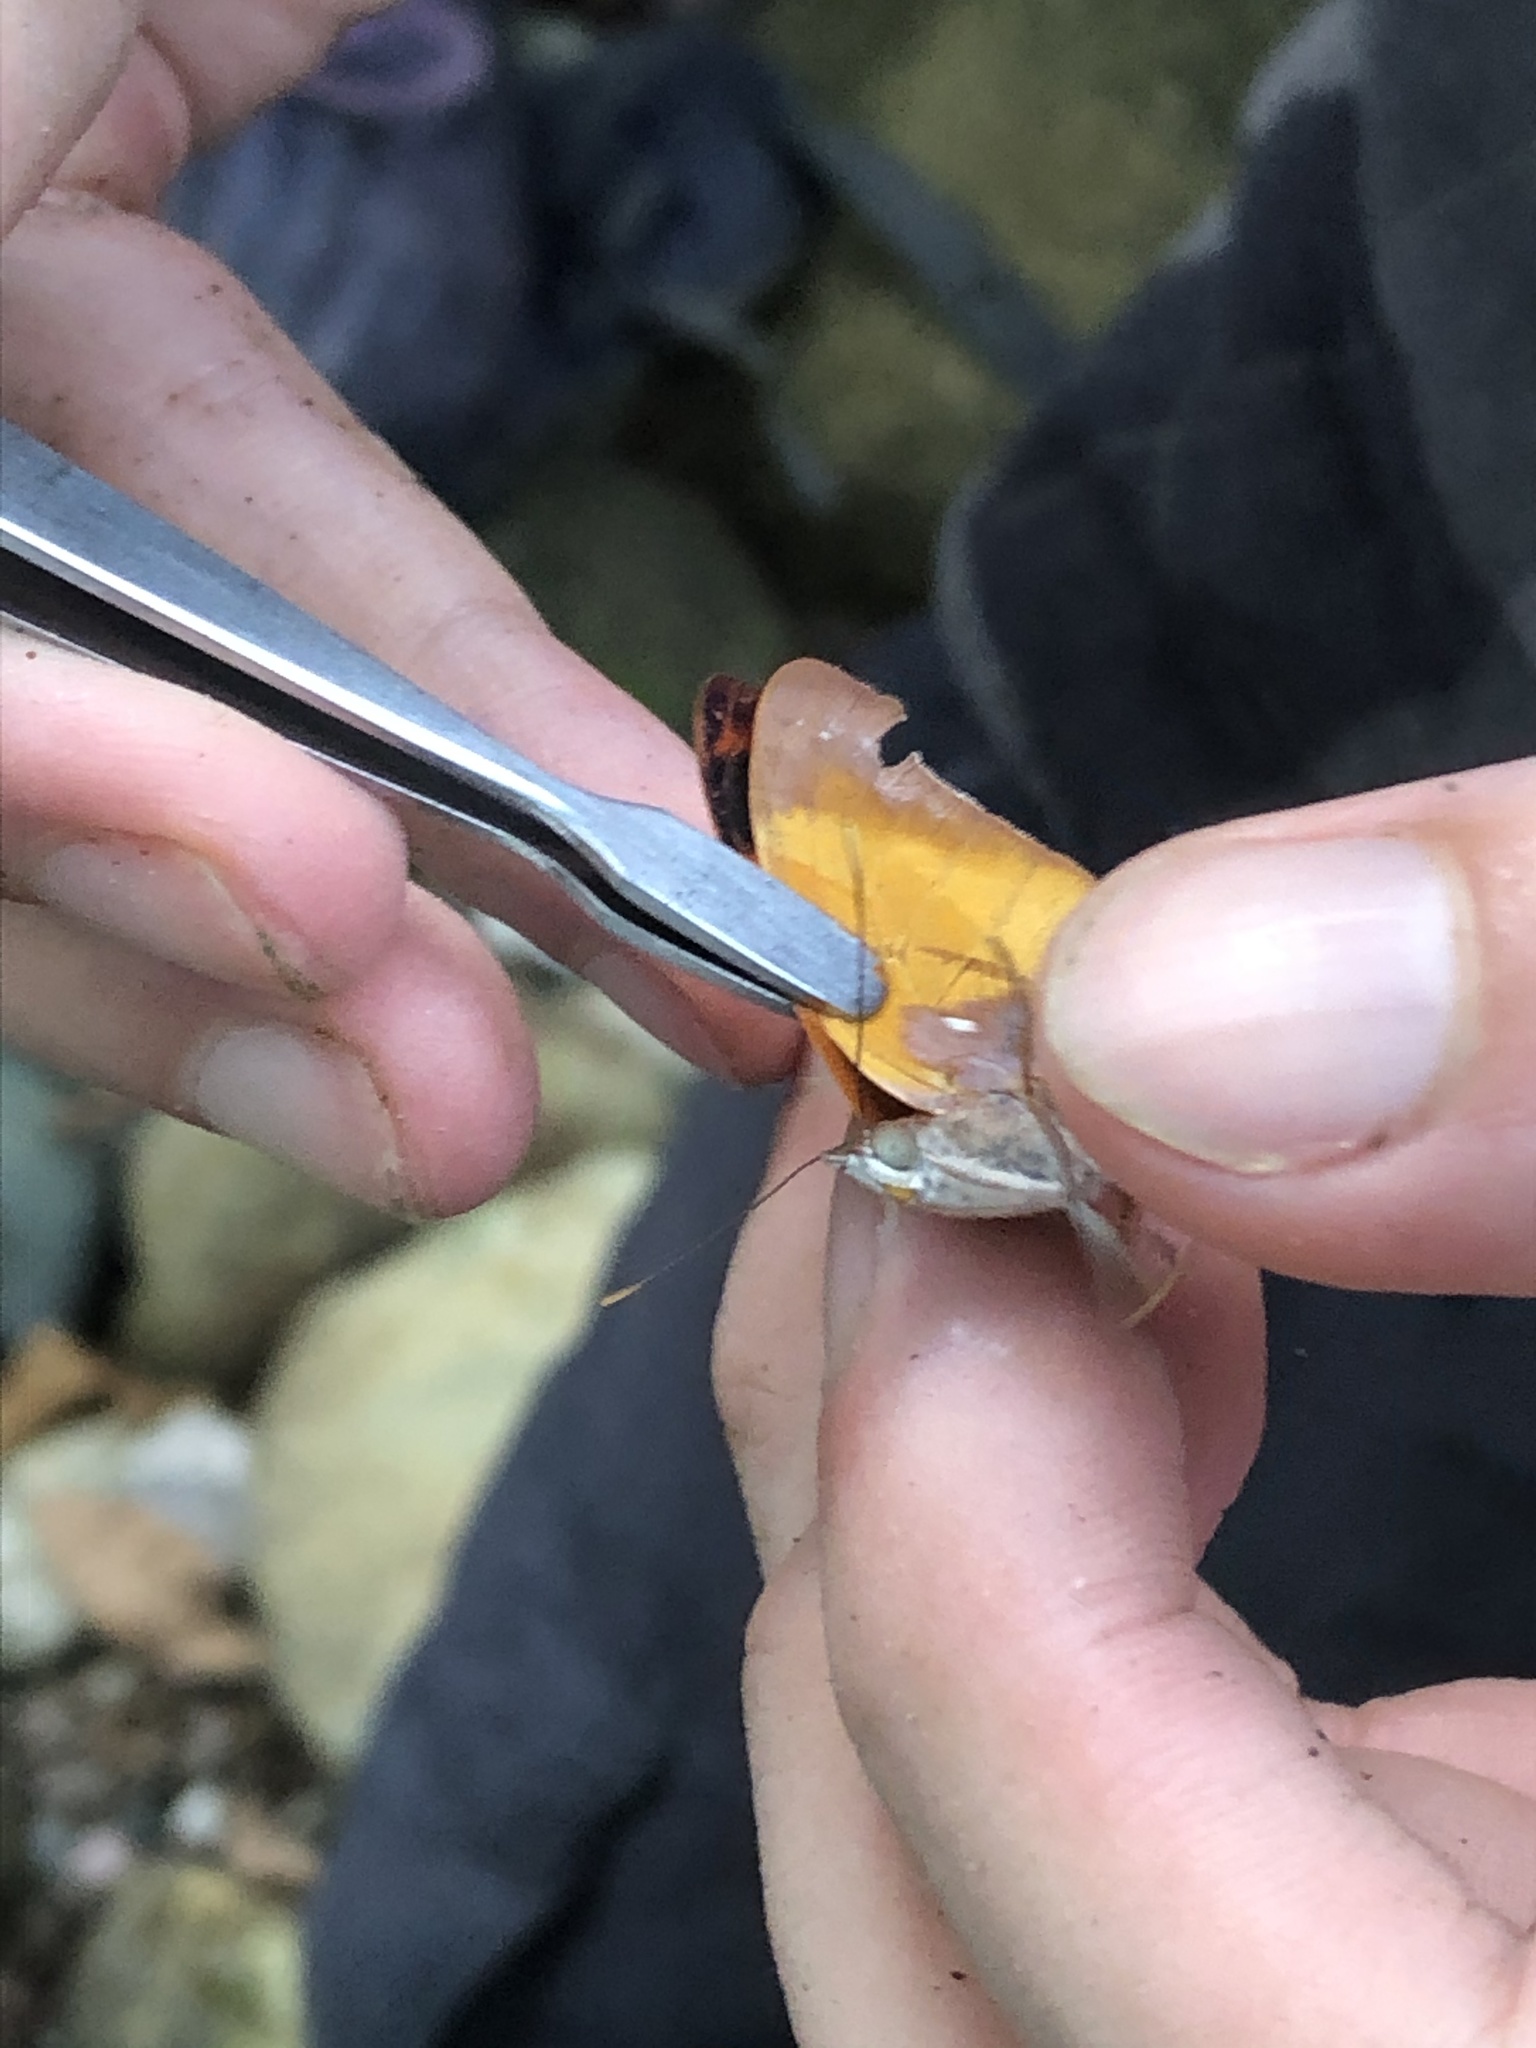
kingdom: Animalia
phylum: Arthropoda
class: Insecta
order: Lepidoptera
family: Nymphalidae
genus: Temenis
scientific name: Temenis laothoe
